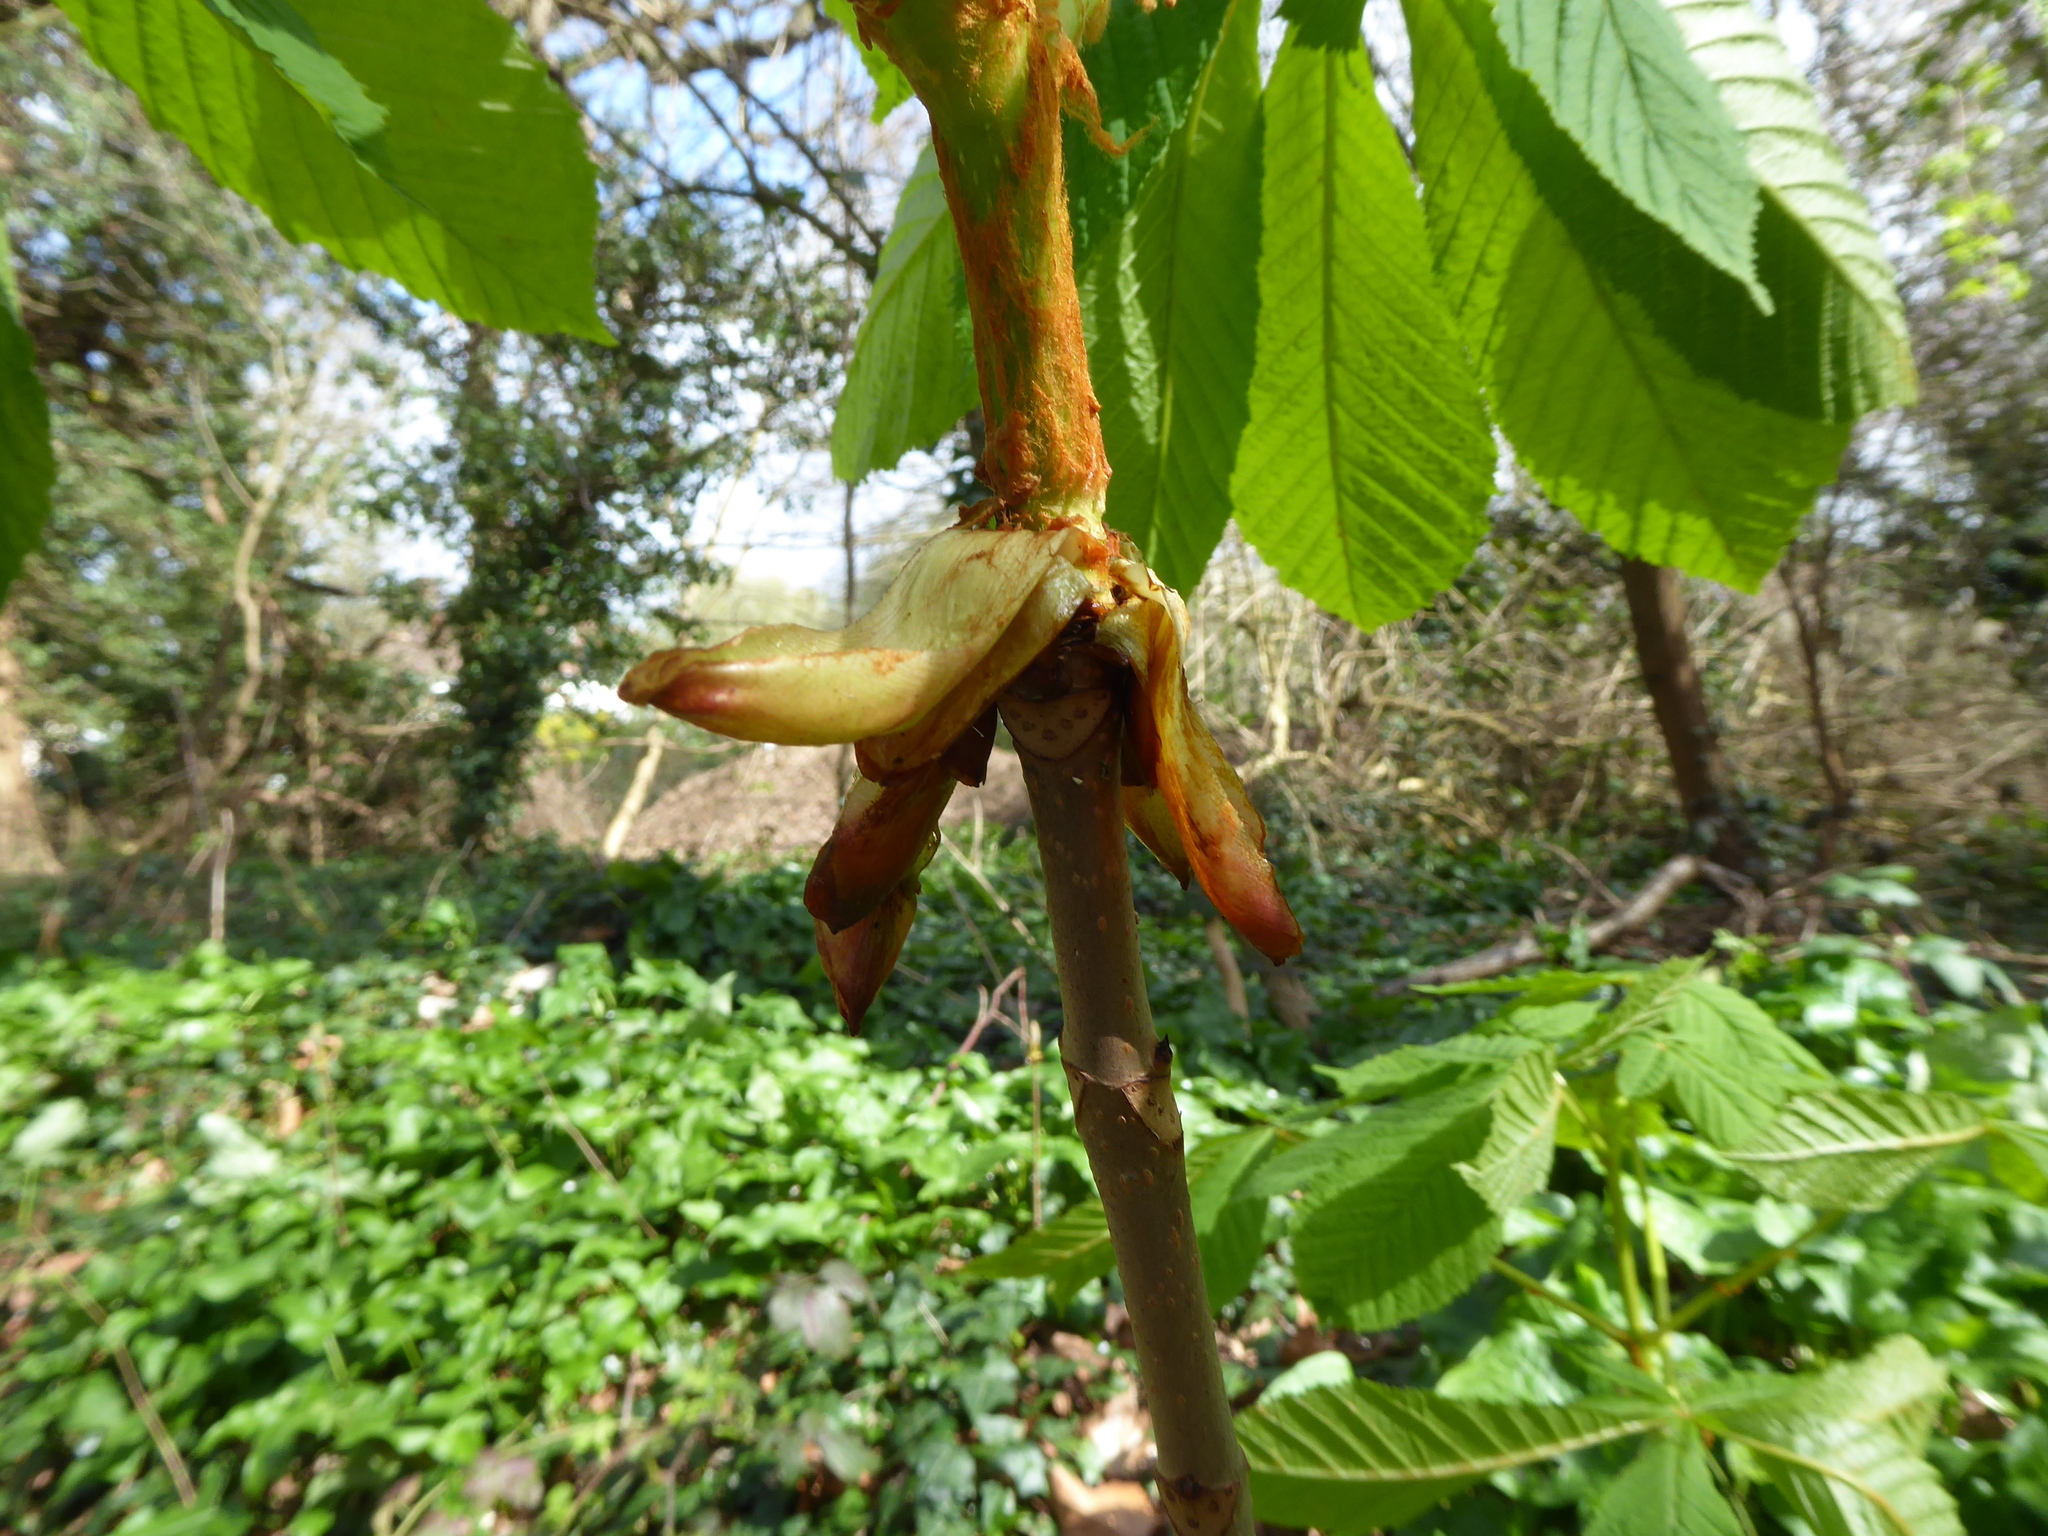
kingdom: Plantae
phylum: Tracheophyta
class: Magnoliopsida
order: Sapindales
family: Sapindaceae
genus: Aesculus
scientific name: Aesculus hippocastanum
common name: Horse-chestnut
